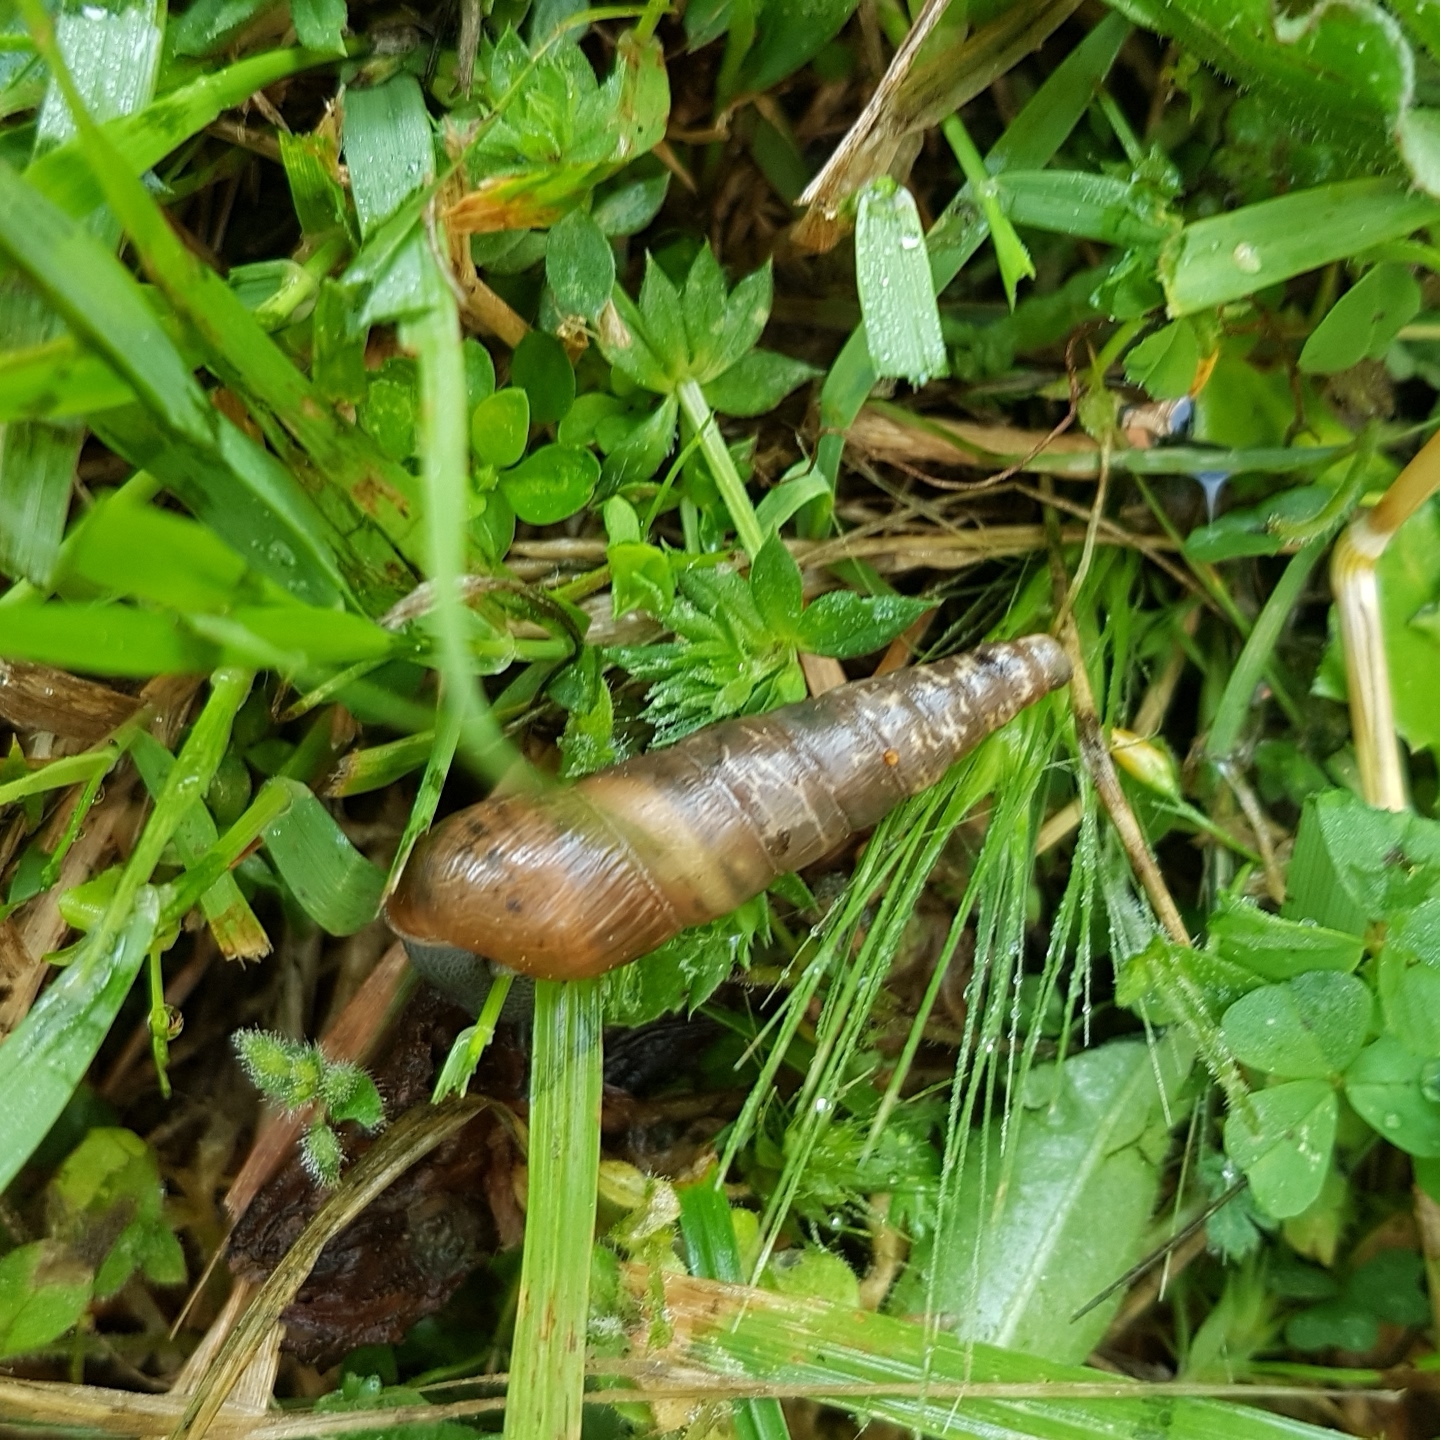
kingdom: Animalia
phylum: Mollusca
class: Gastropoda
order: Stylommatophora
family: Achatinidae
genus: Rumina
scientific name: Rumina decollata
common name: Decollate snail
